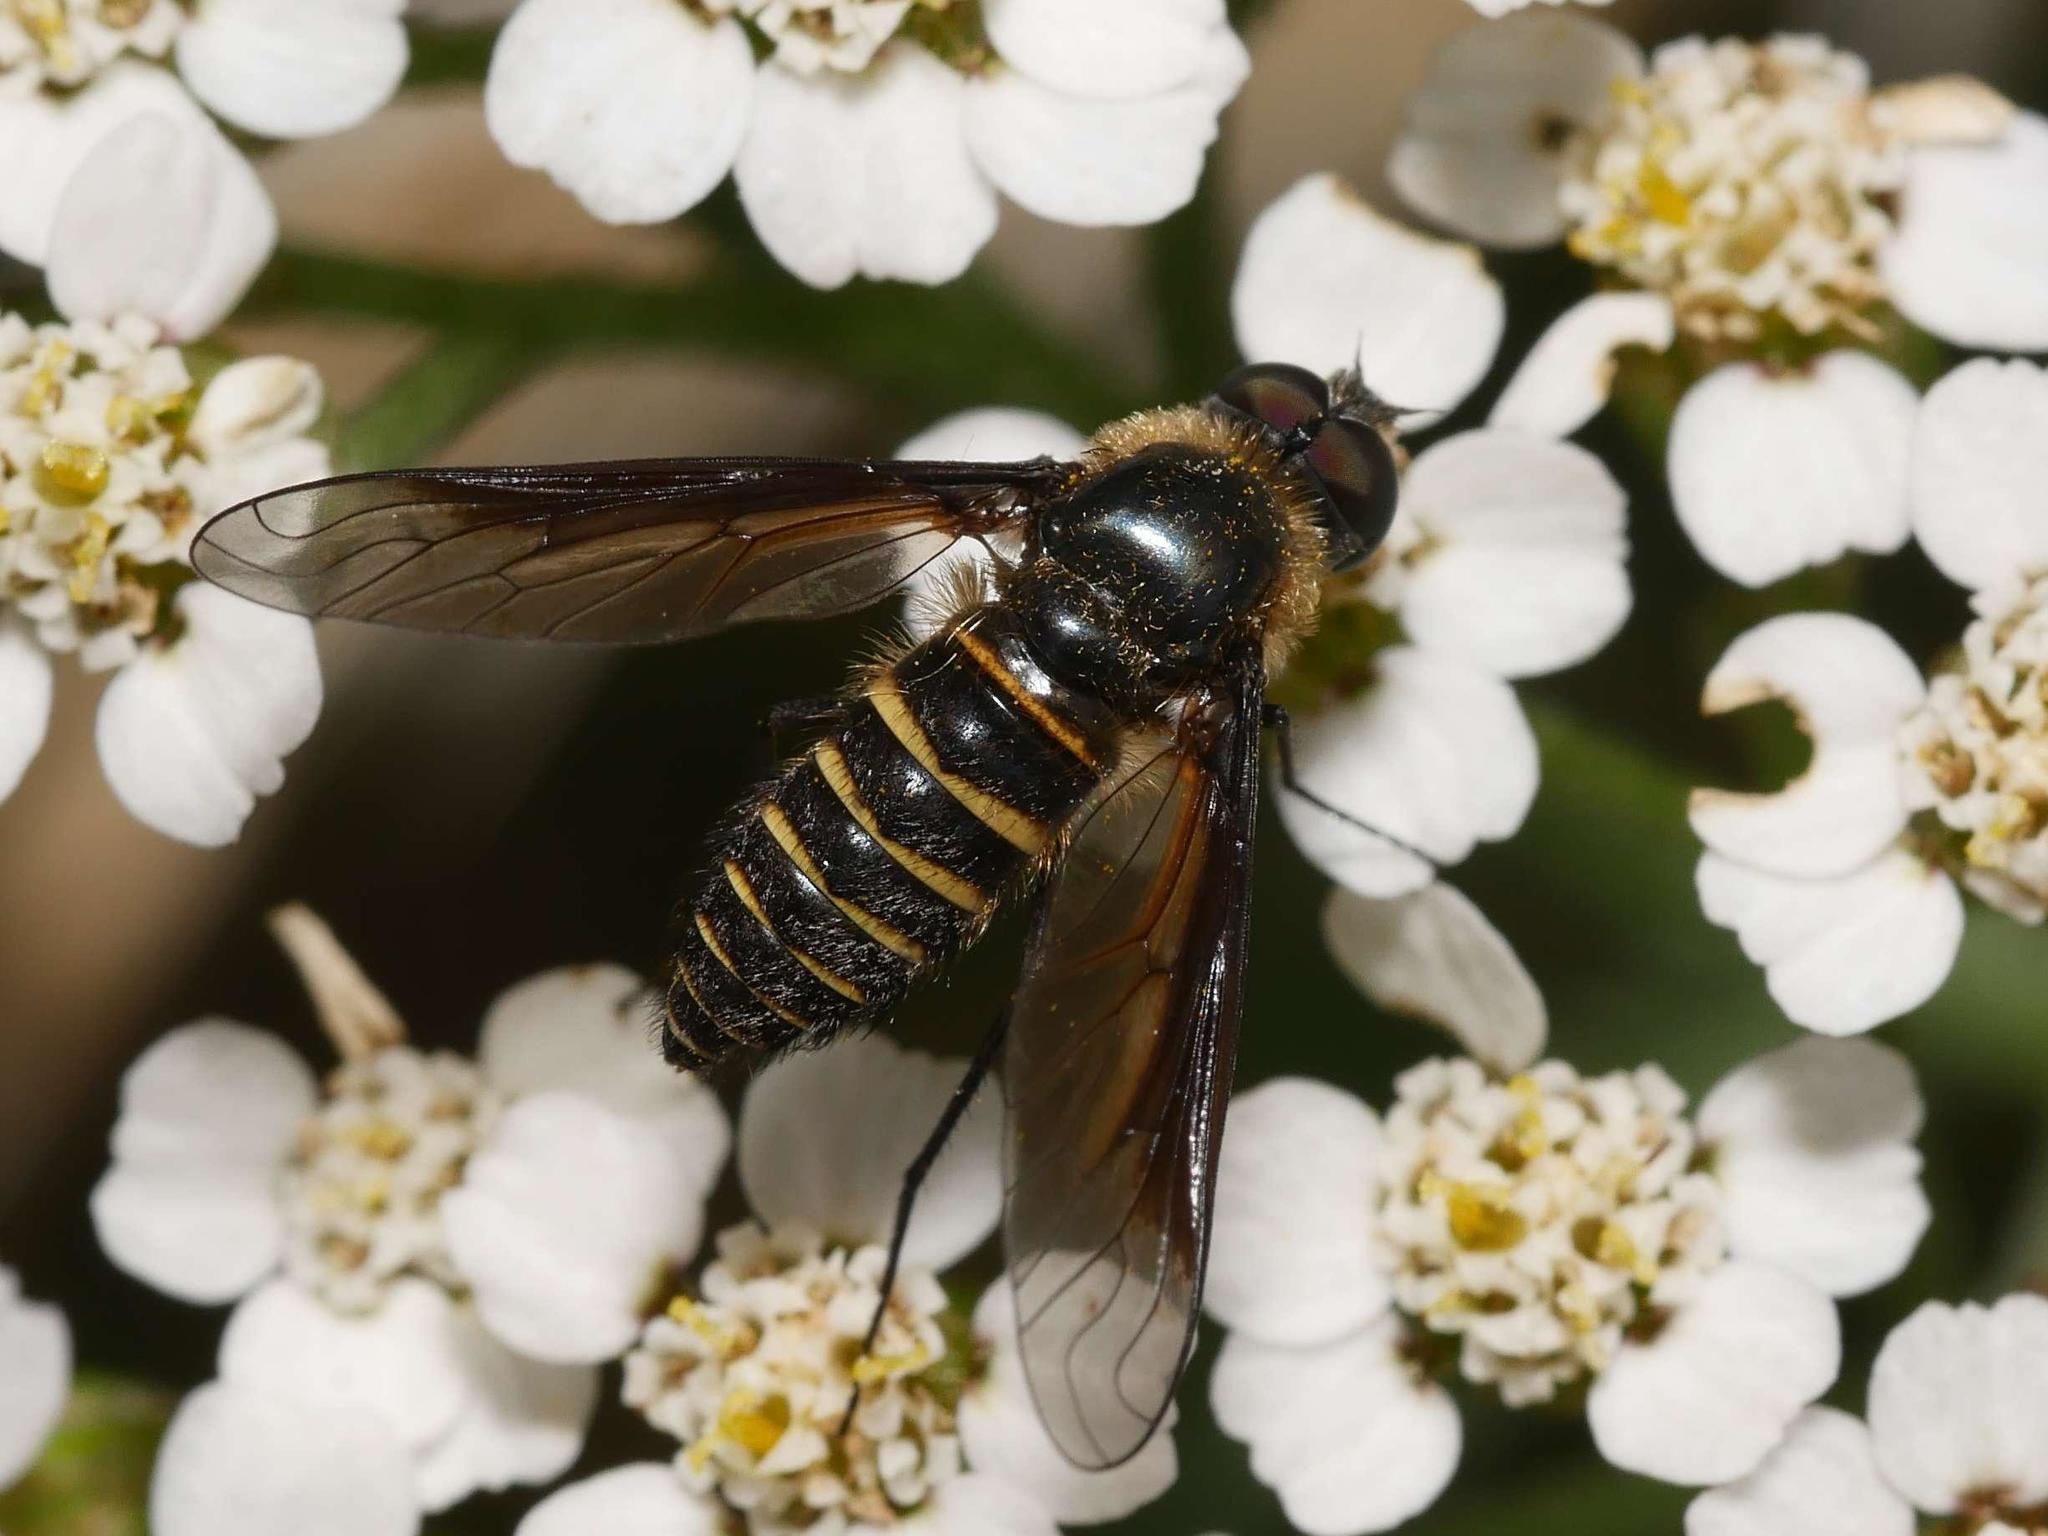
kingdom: Animalia
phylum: Arthropoda
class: Insecta
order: Diptera
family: Bombyliidae
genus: Lomatia
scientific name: Lomatia lateralis
